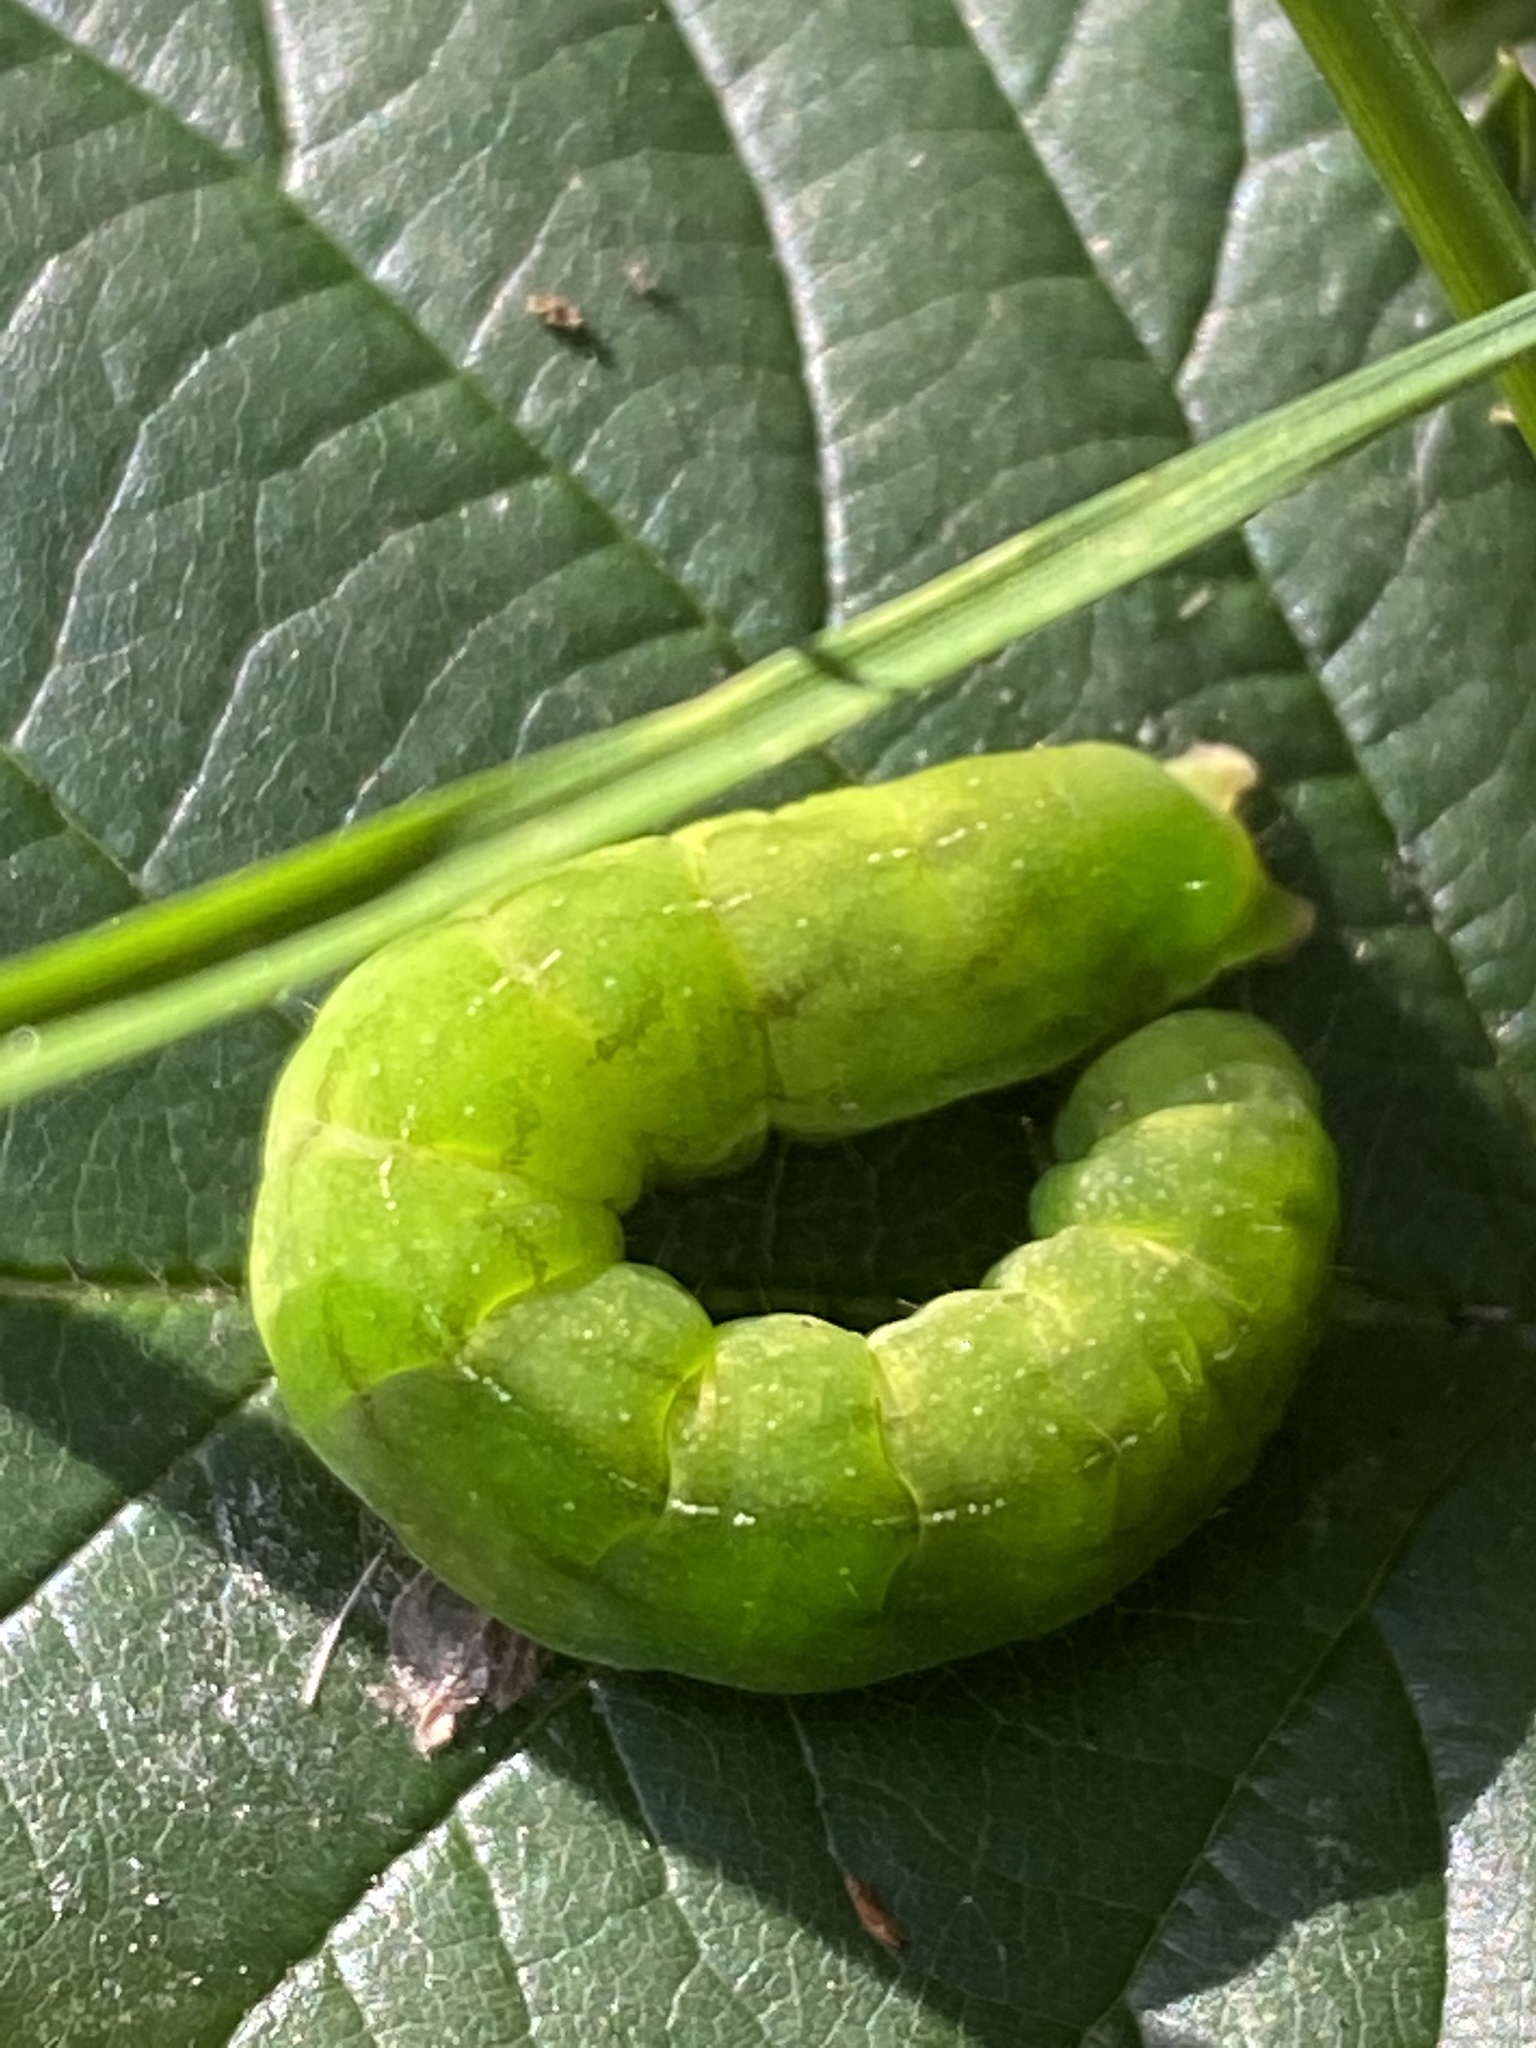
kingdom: Animalia
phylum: Arthropoda
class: Insecta
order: Lepidoptera
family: Noctuidae
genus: Phlogophora
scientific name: Phlogophora meticulosa
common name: Angle shades
